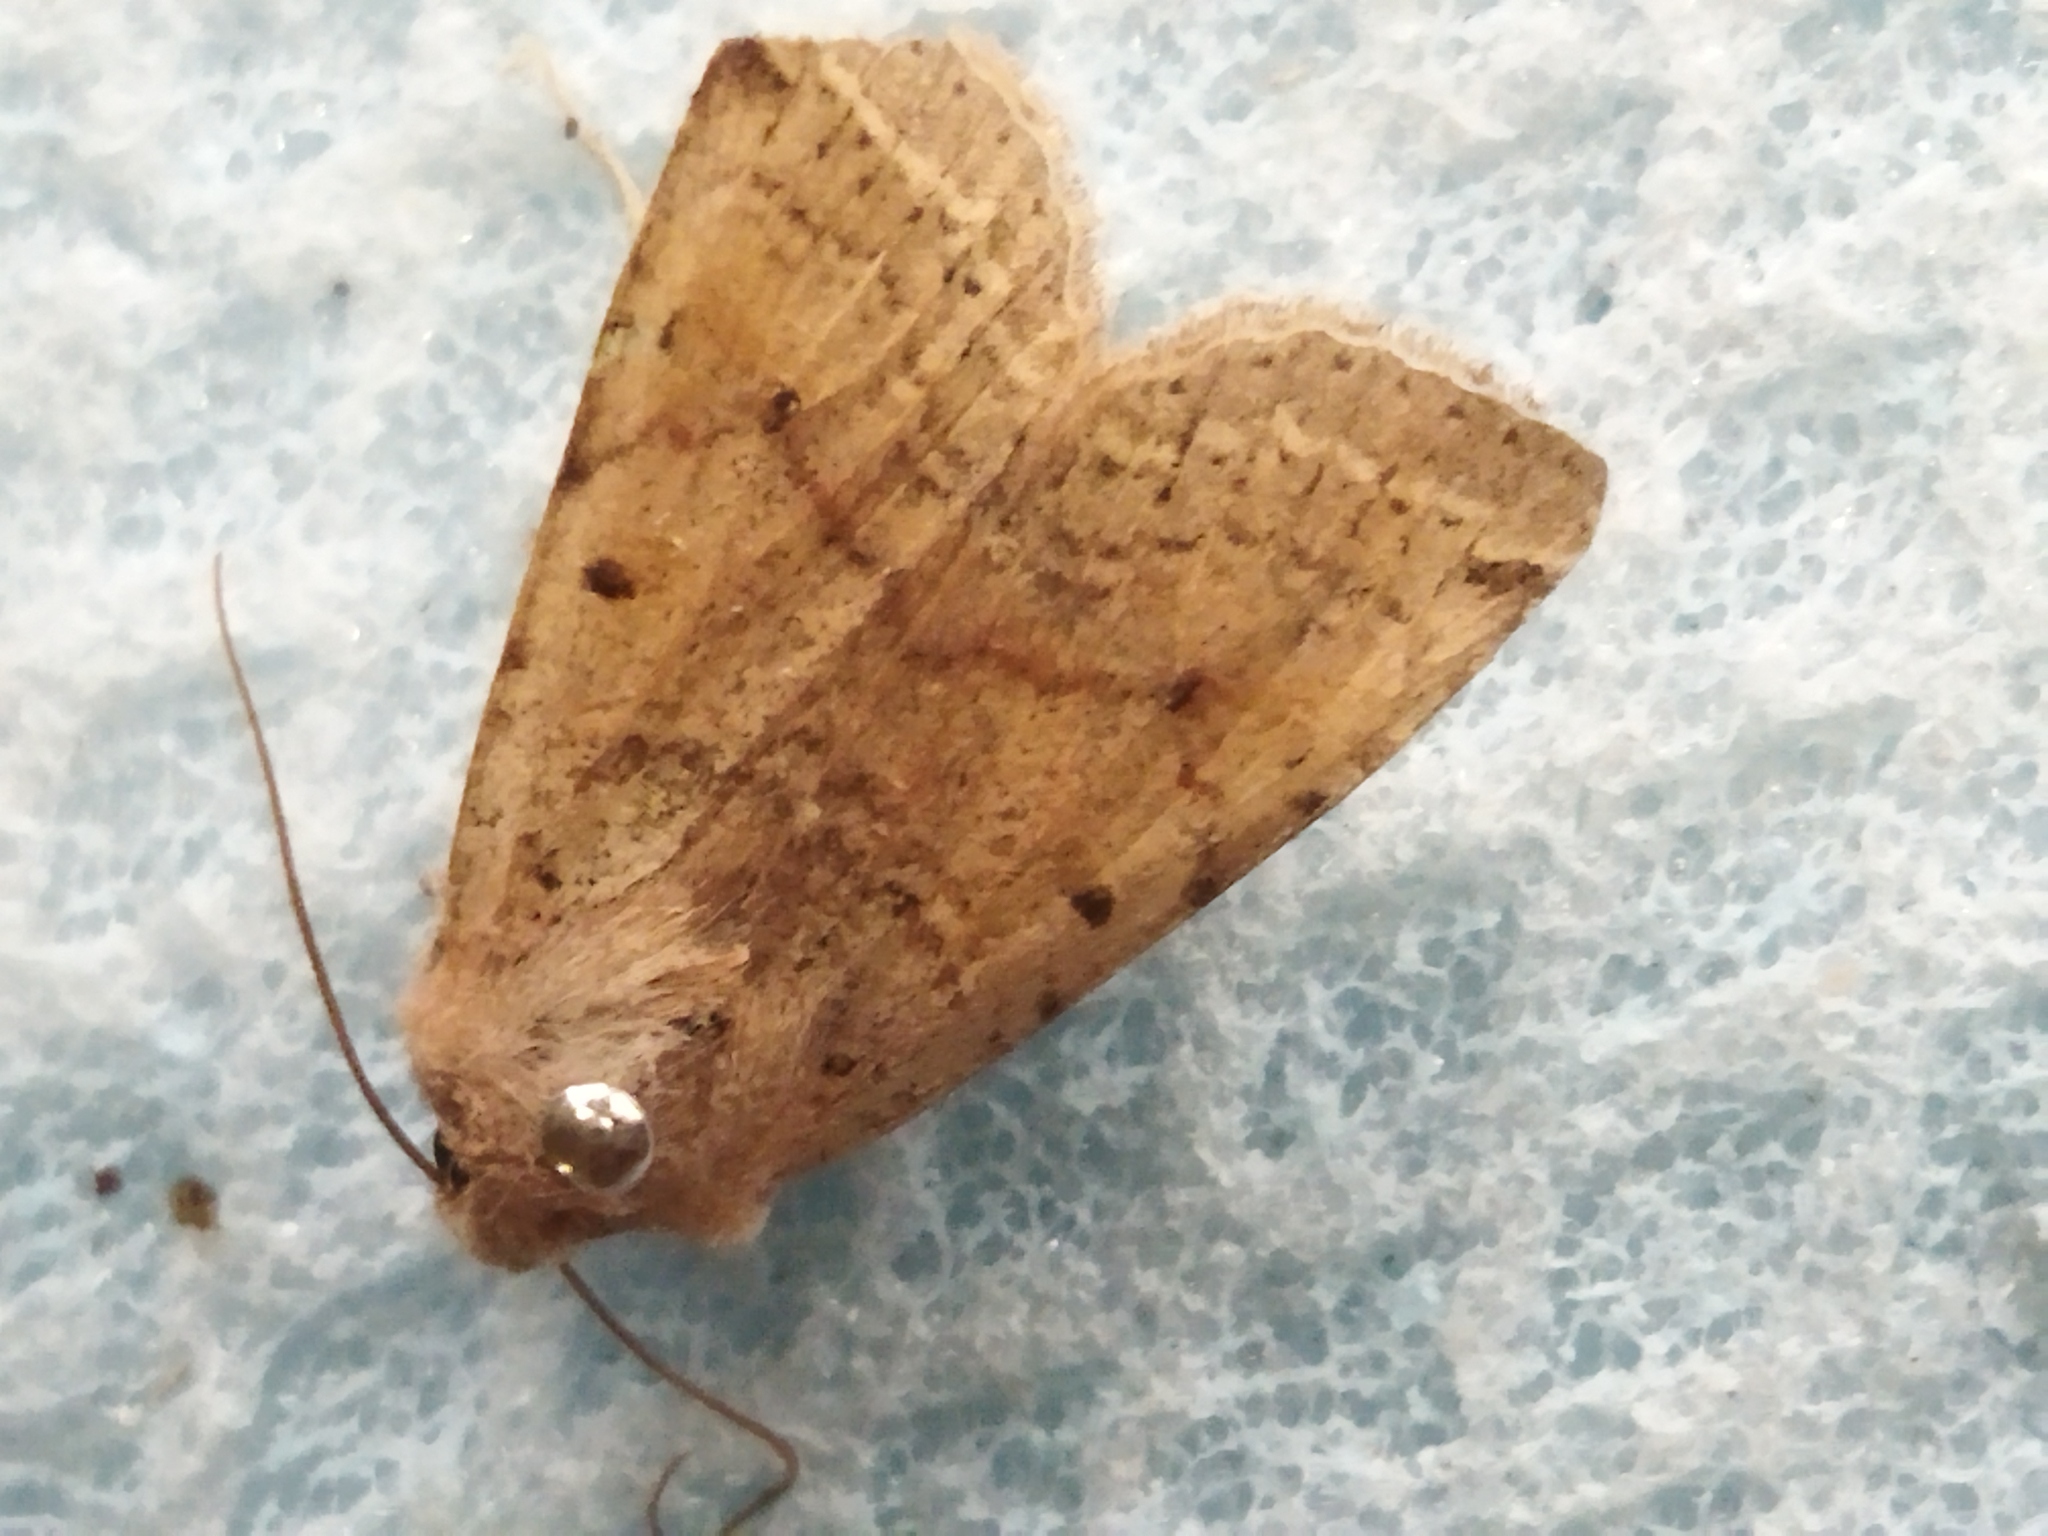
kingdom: Animalia
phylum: Arthropoda
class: Insecta
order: Lepidoptera
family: Noctuidae
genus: Agrochola
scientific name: Agrochola lychnidis
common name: Beaded chestnut
